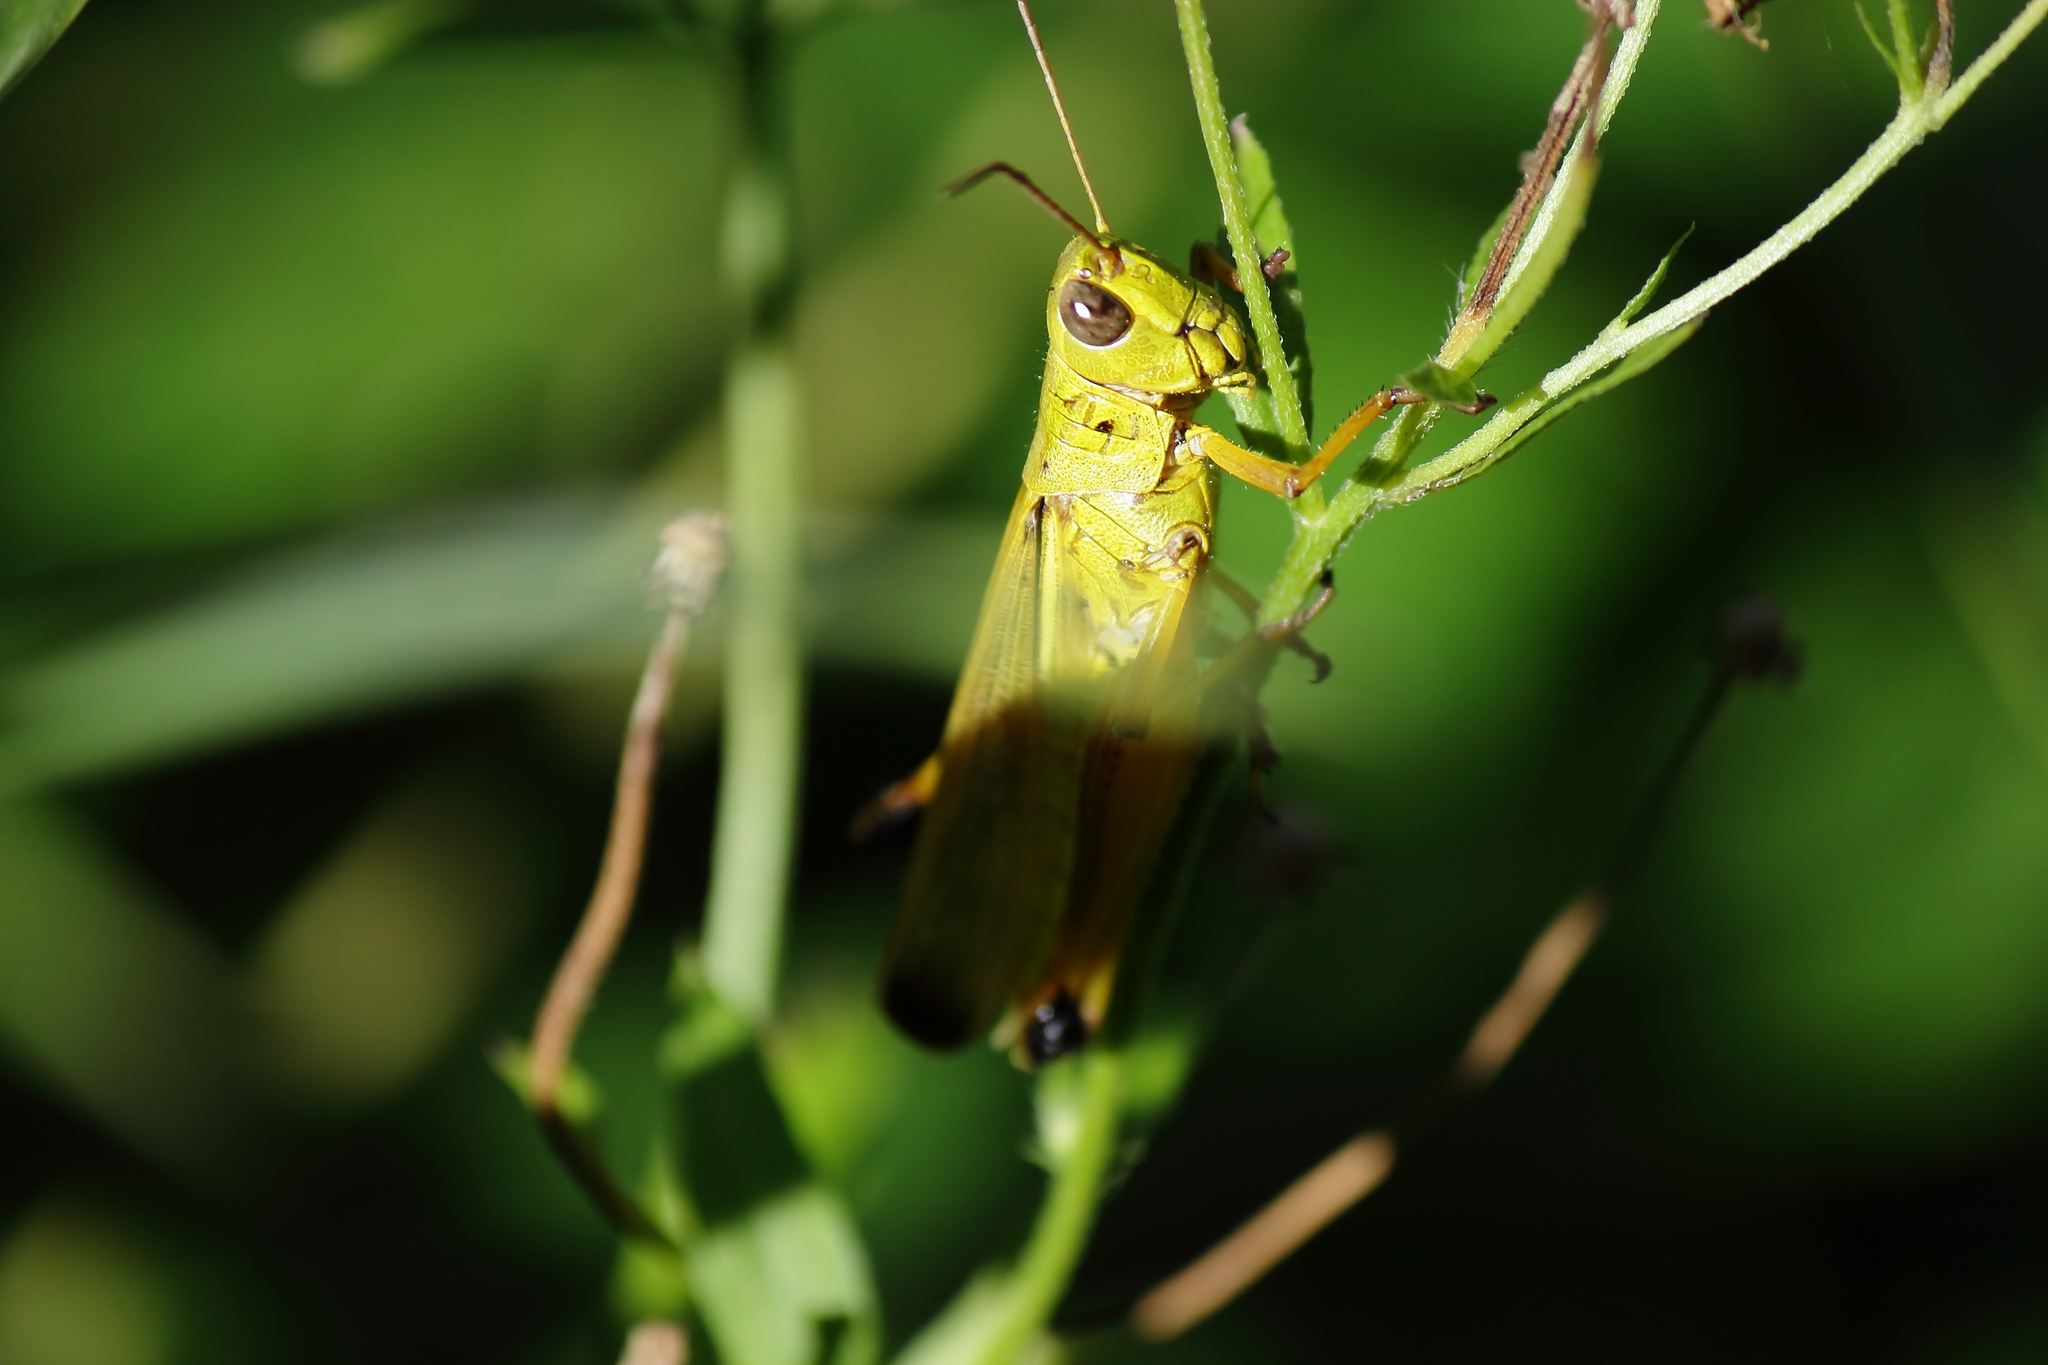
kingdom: Animalia
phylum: Arthropoda
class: Insecta
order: Orthoptera
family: Acrididae
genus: Stethophyma
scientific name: Stethophyma magister
